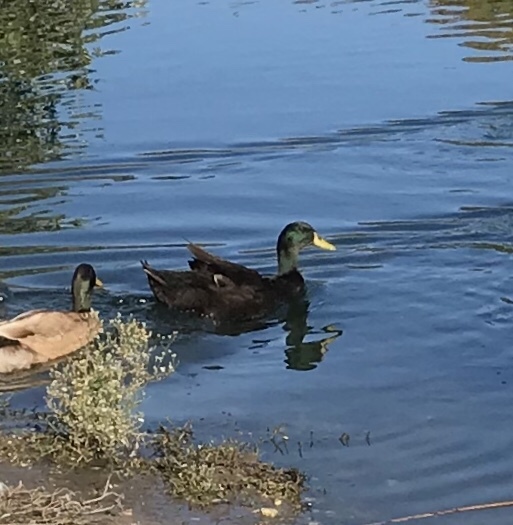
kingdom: Animalia
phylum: Chordata
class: Aves
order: Anseriformes
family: Anatidae
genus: Anas
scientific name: Anas platyrhynchos
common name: Mallard
